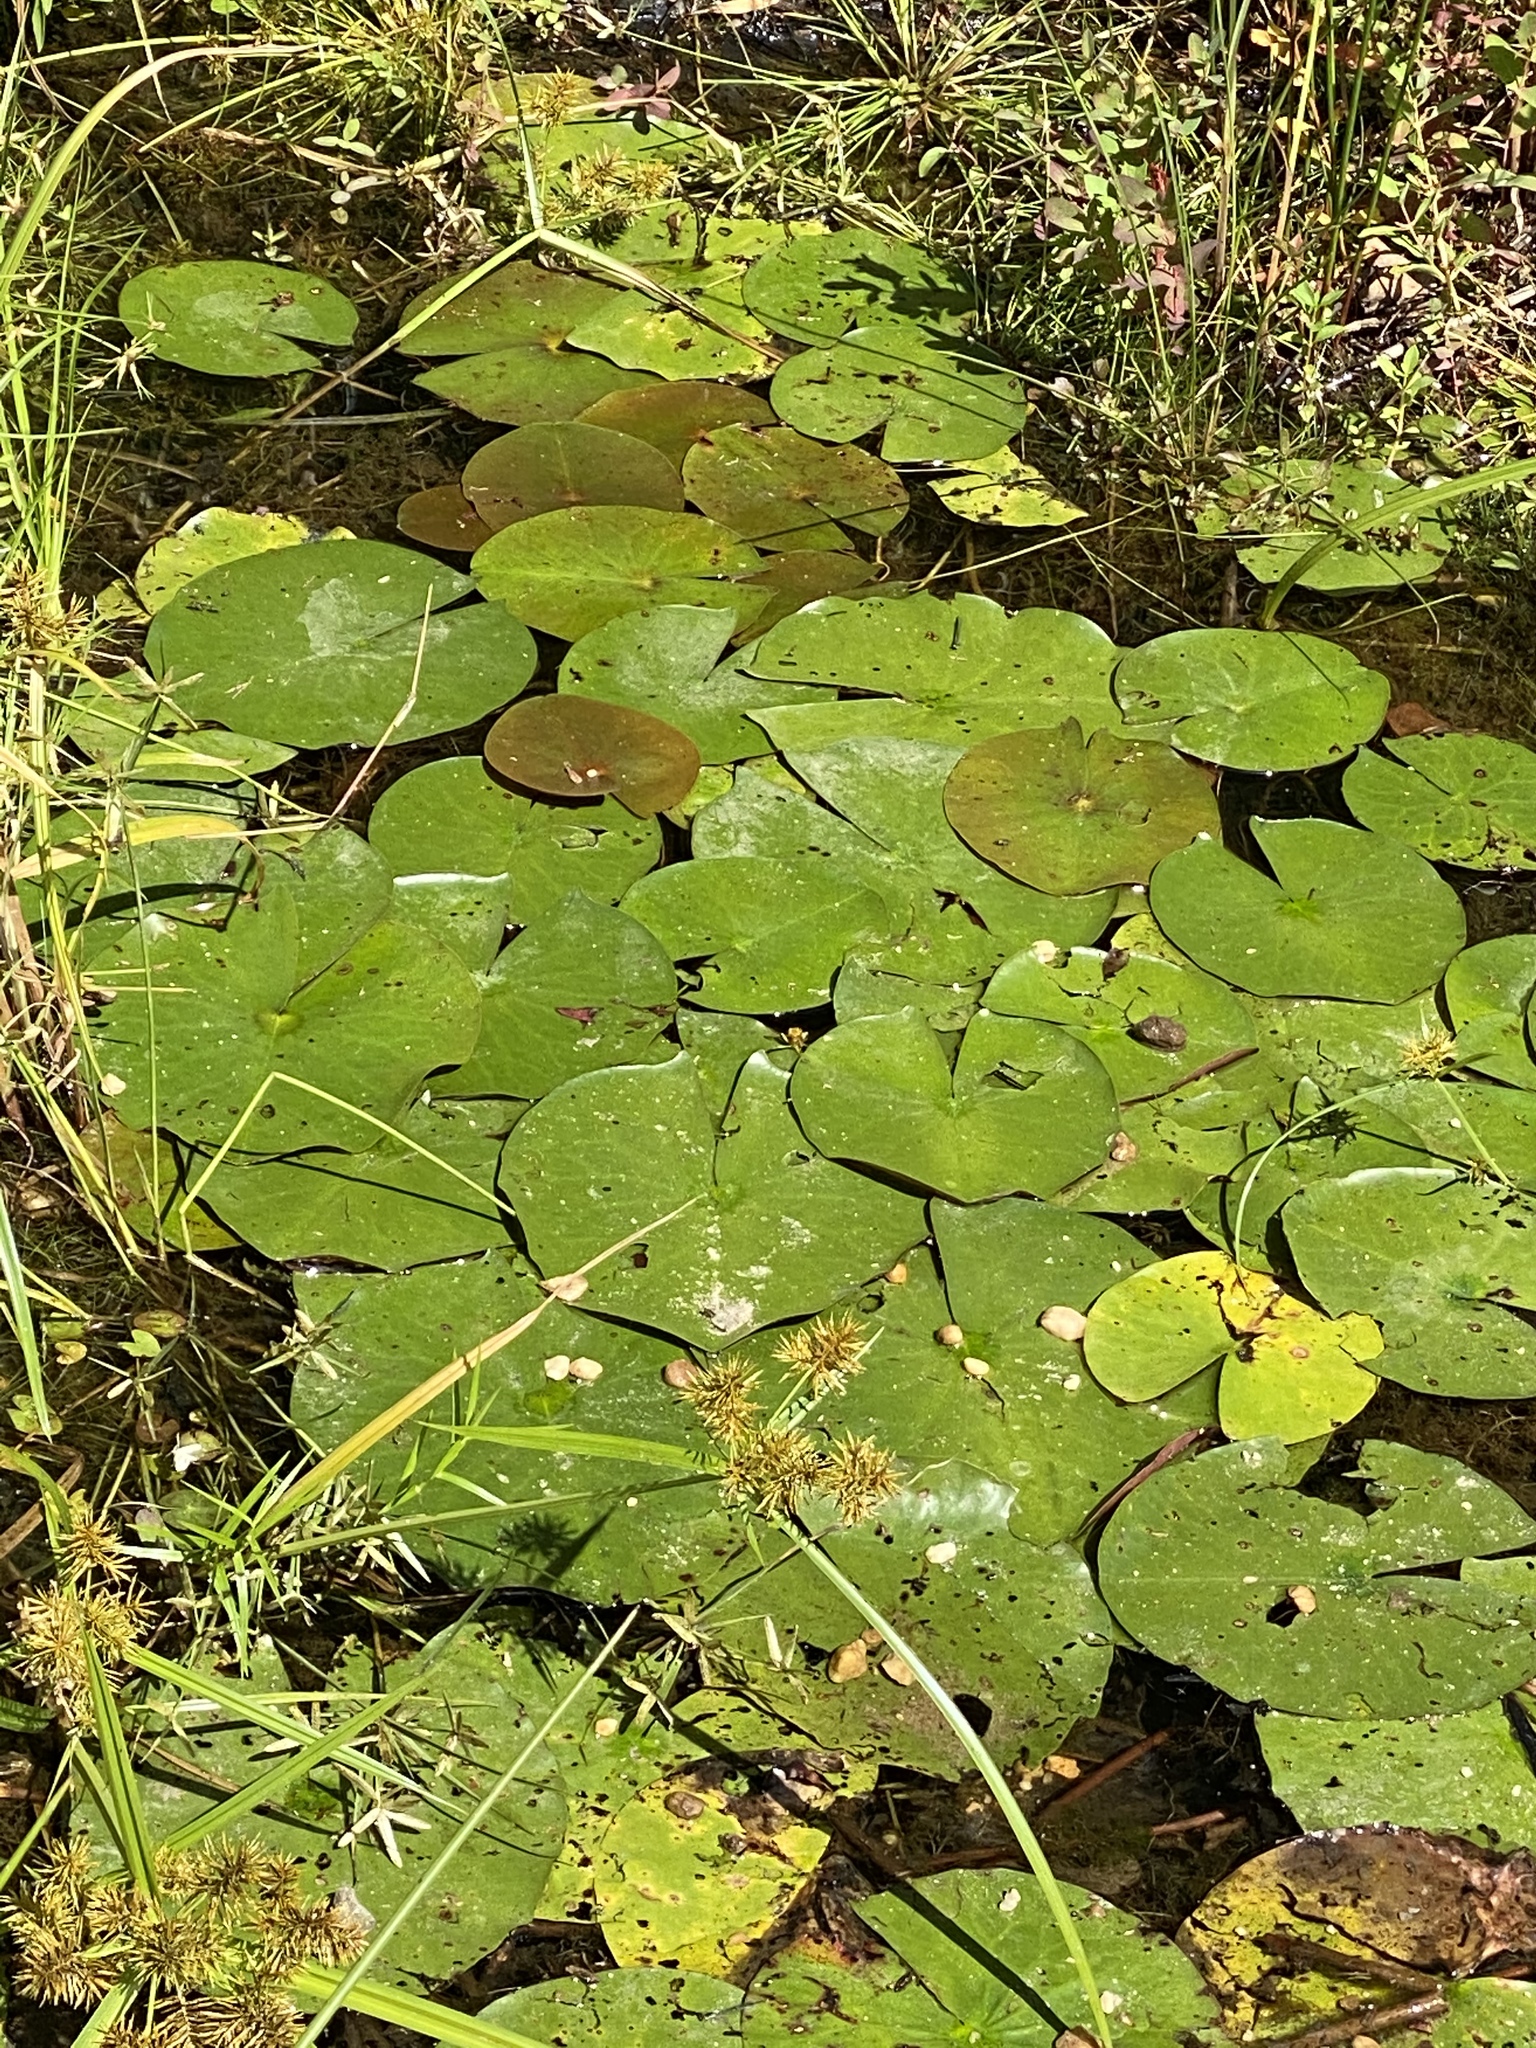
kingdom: Plantae
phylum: Tracheophyta
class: Magnoliopsida
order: Nymphaeales
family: Nymphaeaceae
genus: Nymphaea
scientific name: Nymphaea odorata
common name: Fragrant water-lily
